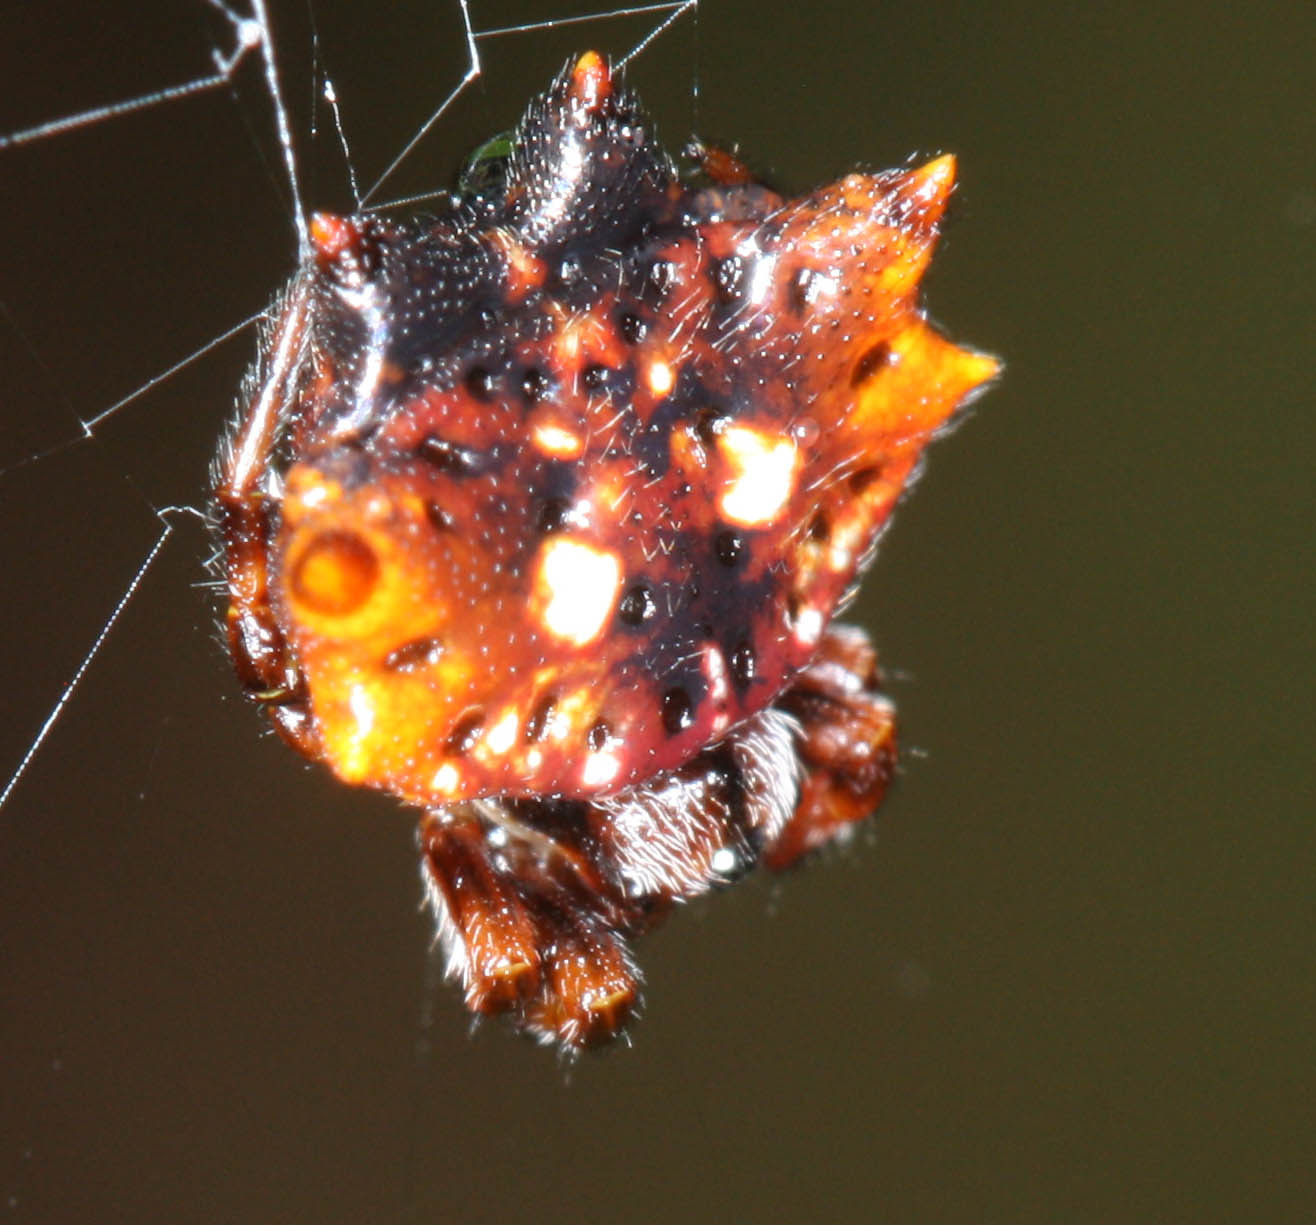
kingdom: Animalia
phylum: Arthropoda
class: Arachnida
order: Araneae
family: Araneidae
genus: Thelacantha
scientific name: Thelacantha brevispina
